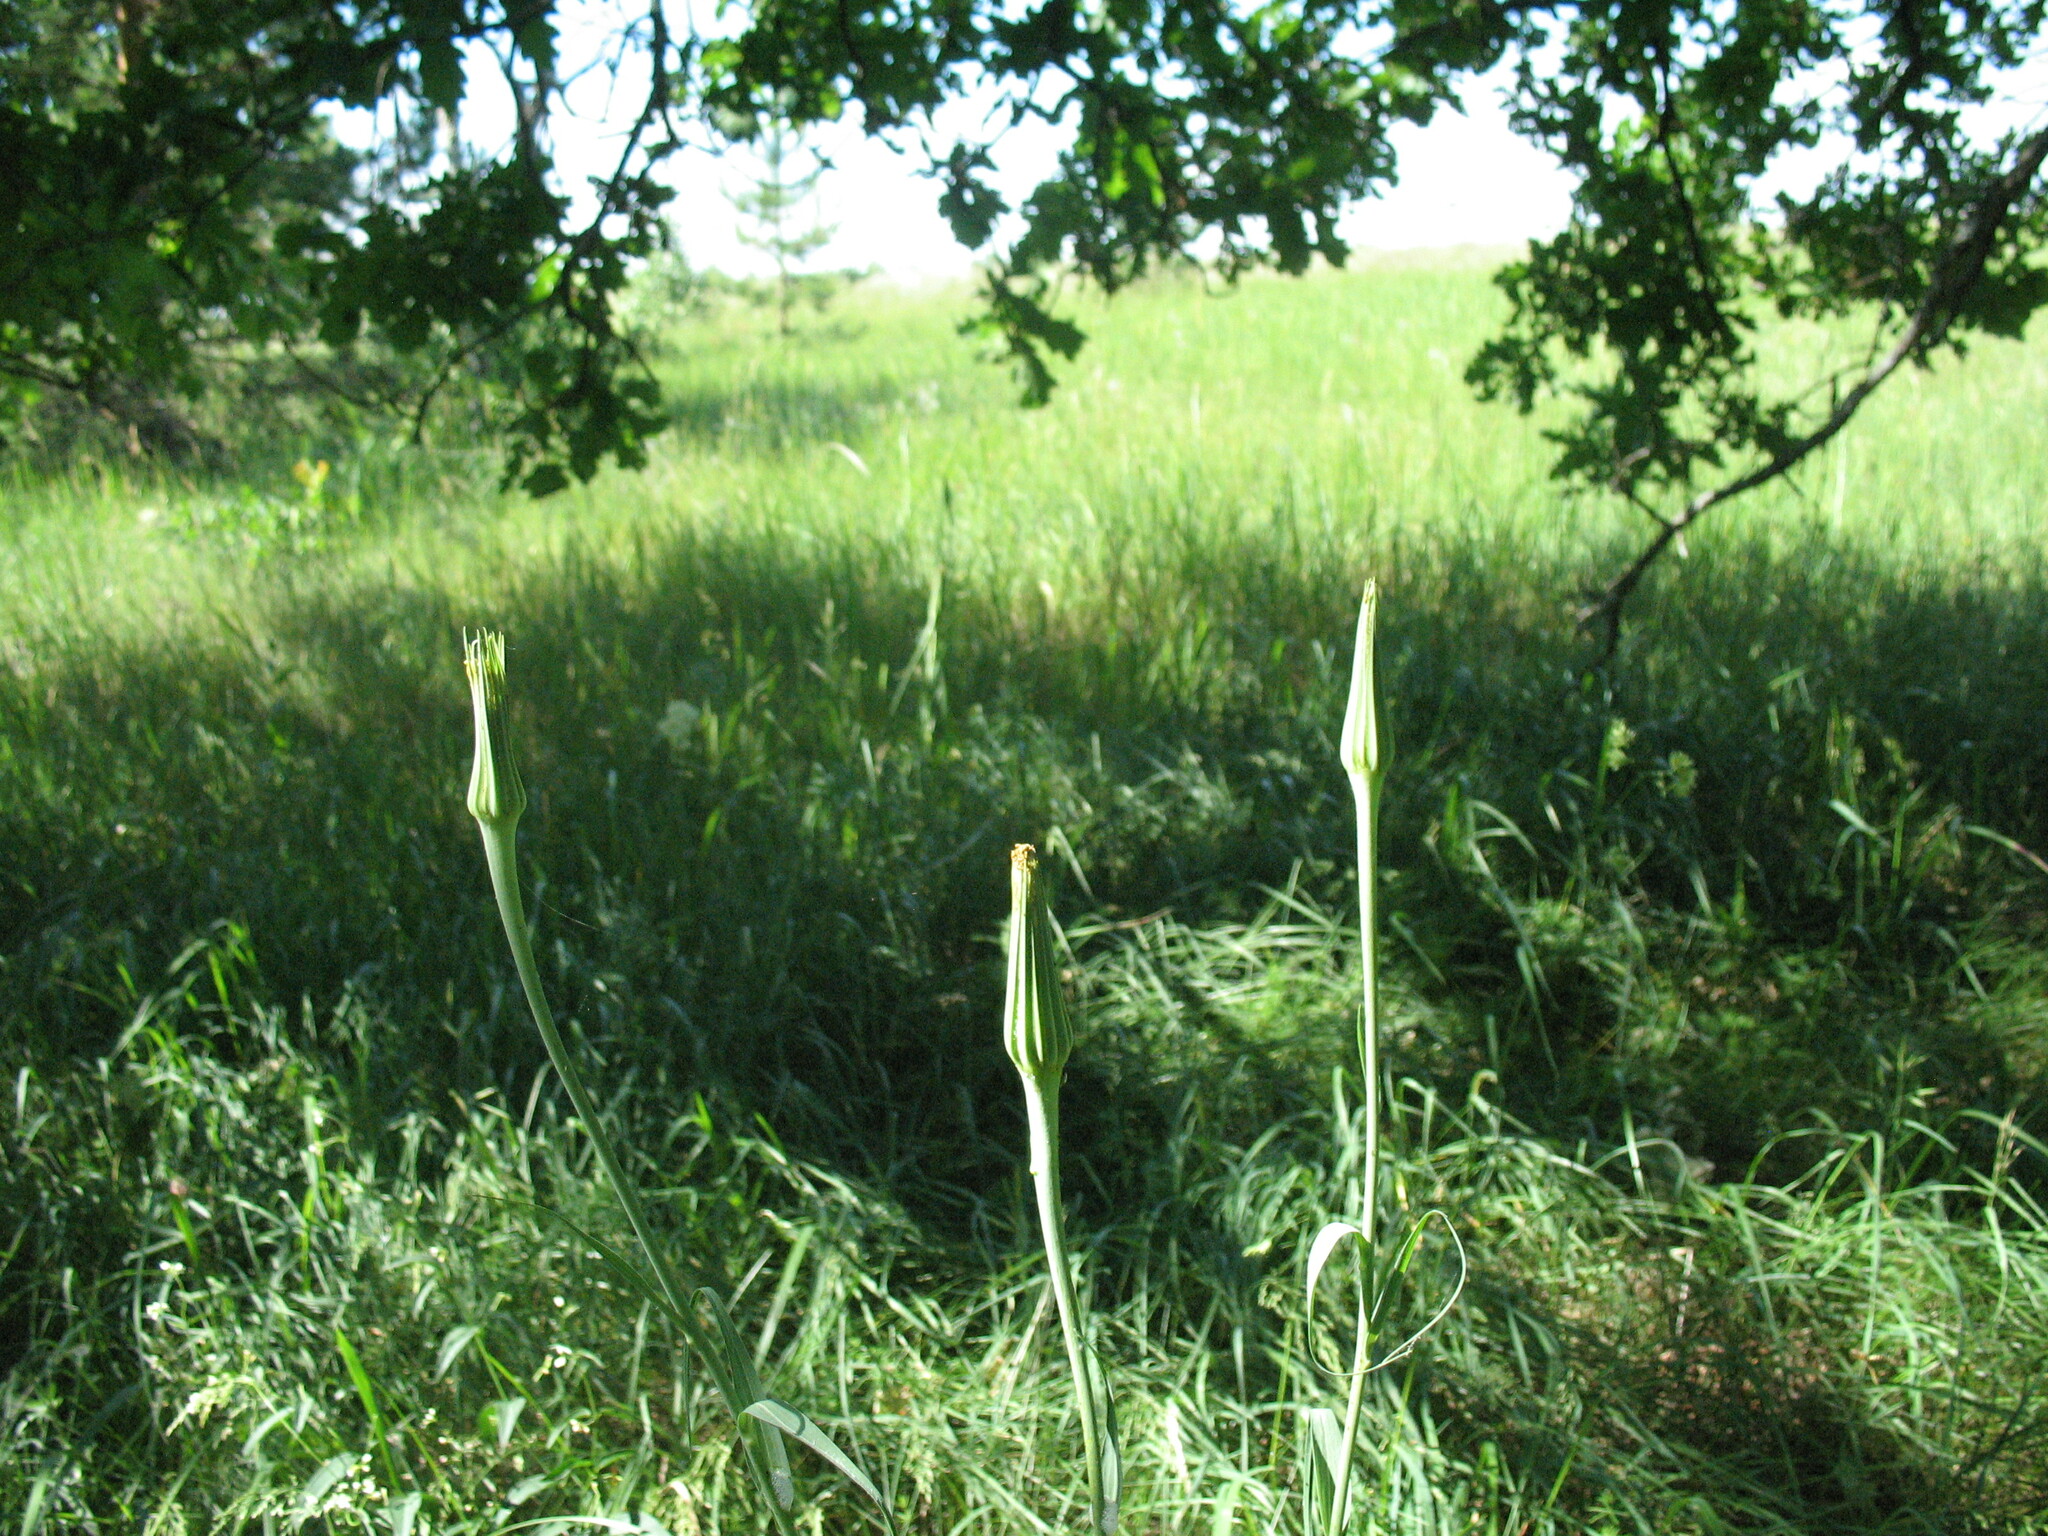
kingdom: Plantae
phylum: Tracheophyta
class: Magnoliopsida
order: Asterales
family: Asteraceae
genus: Tragopogon
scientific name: Tragopogon dubius
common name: Yellow salsify
